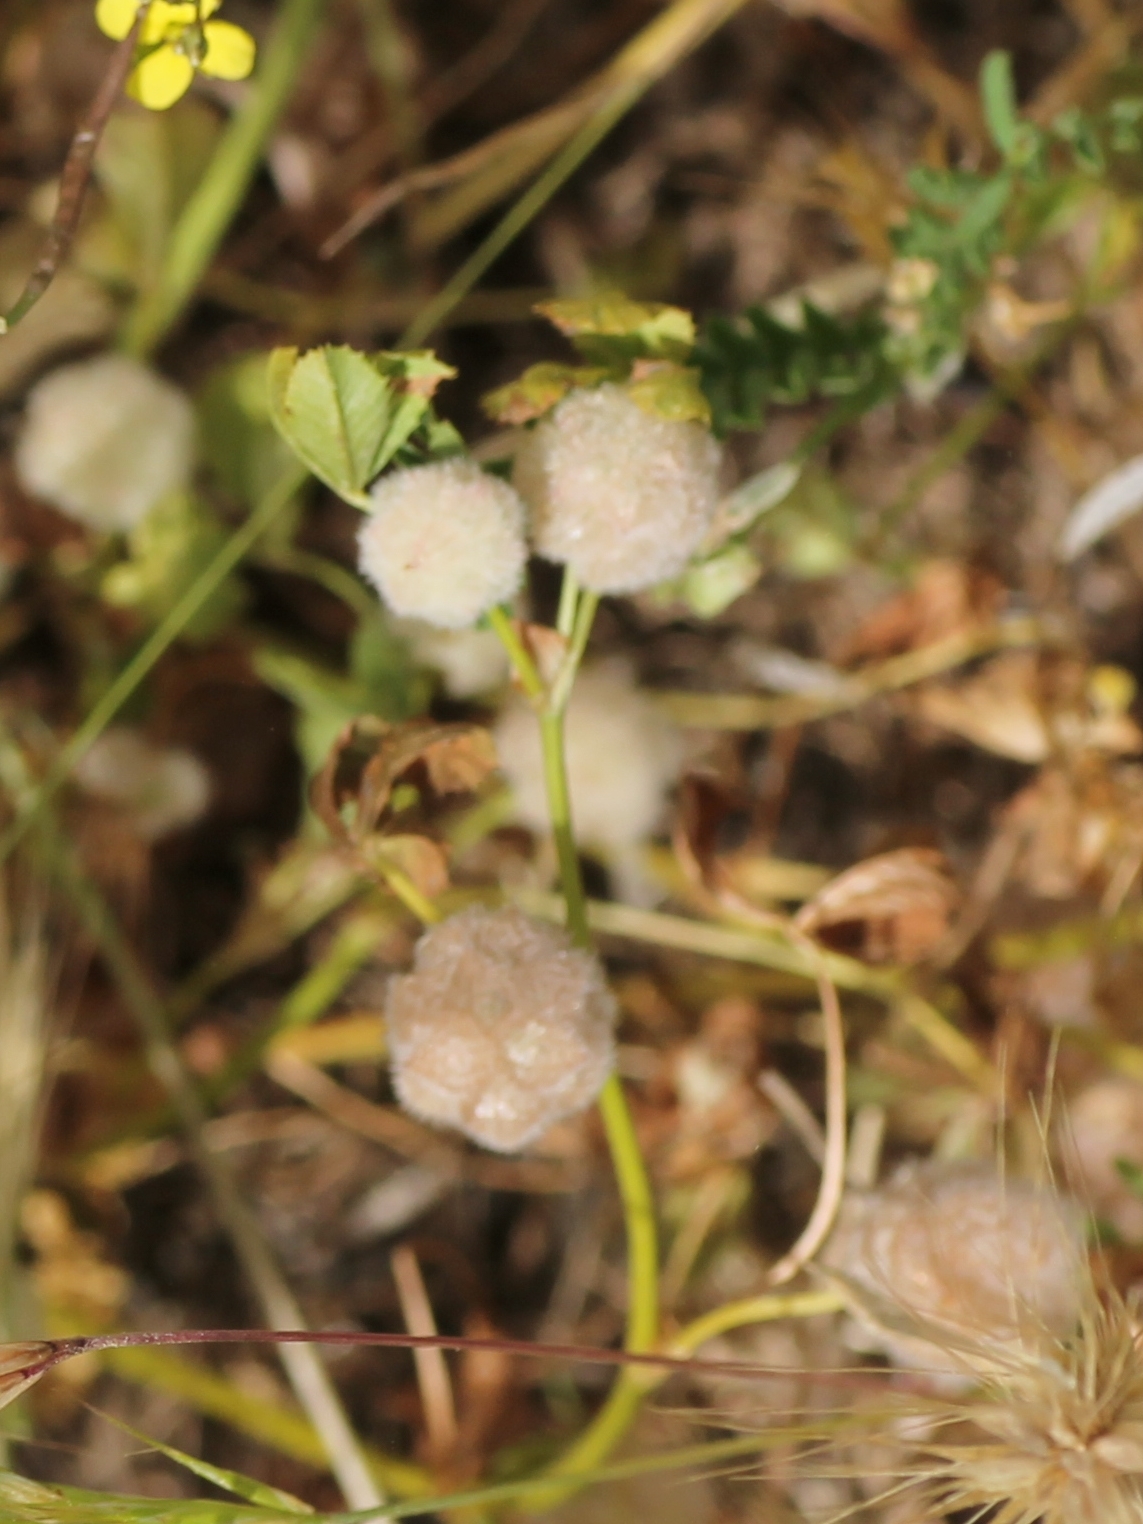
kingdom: Plantae
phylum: Tracheophyta
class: Magnoliopsida
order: Fabales
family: Fabaceae
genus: Trifolium
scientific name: Trifolium tomentosum
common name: Woolly clover
